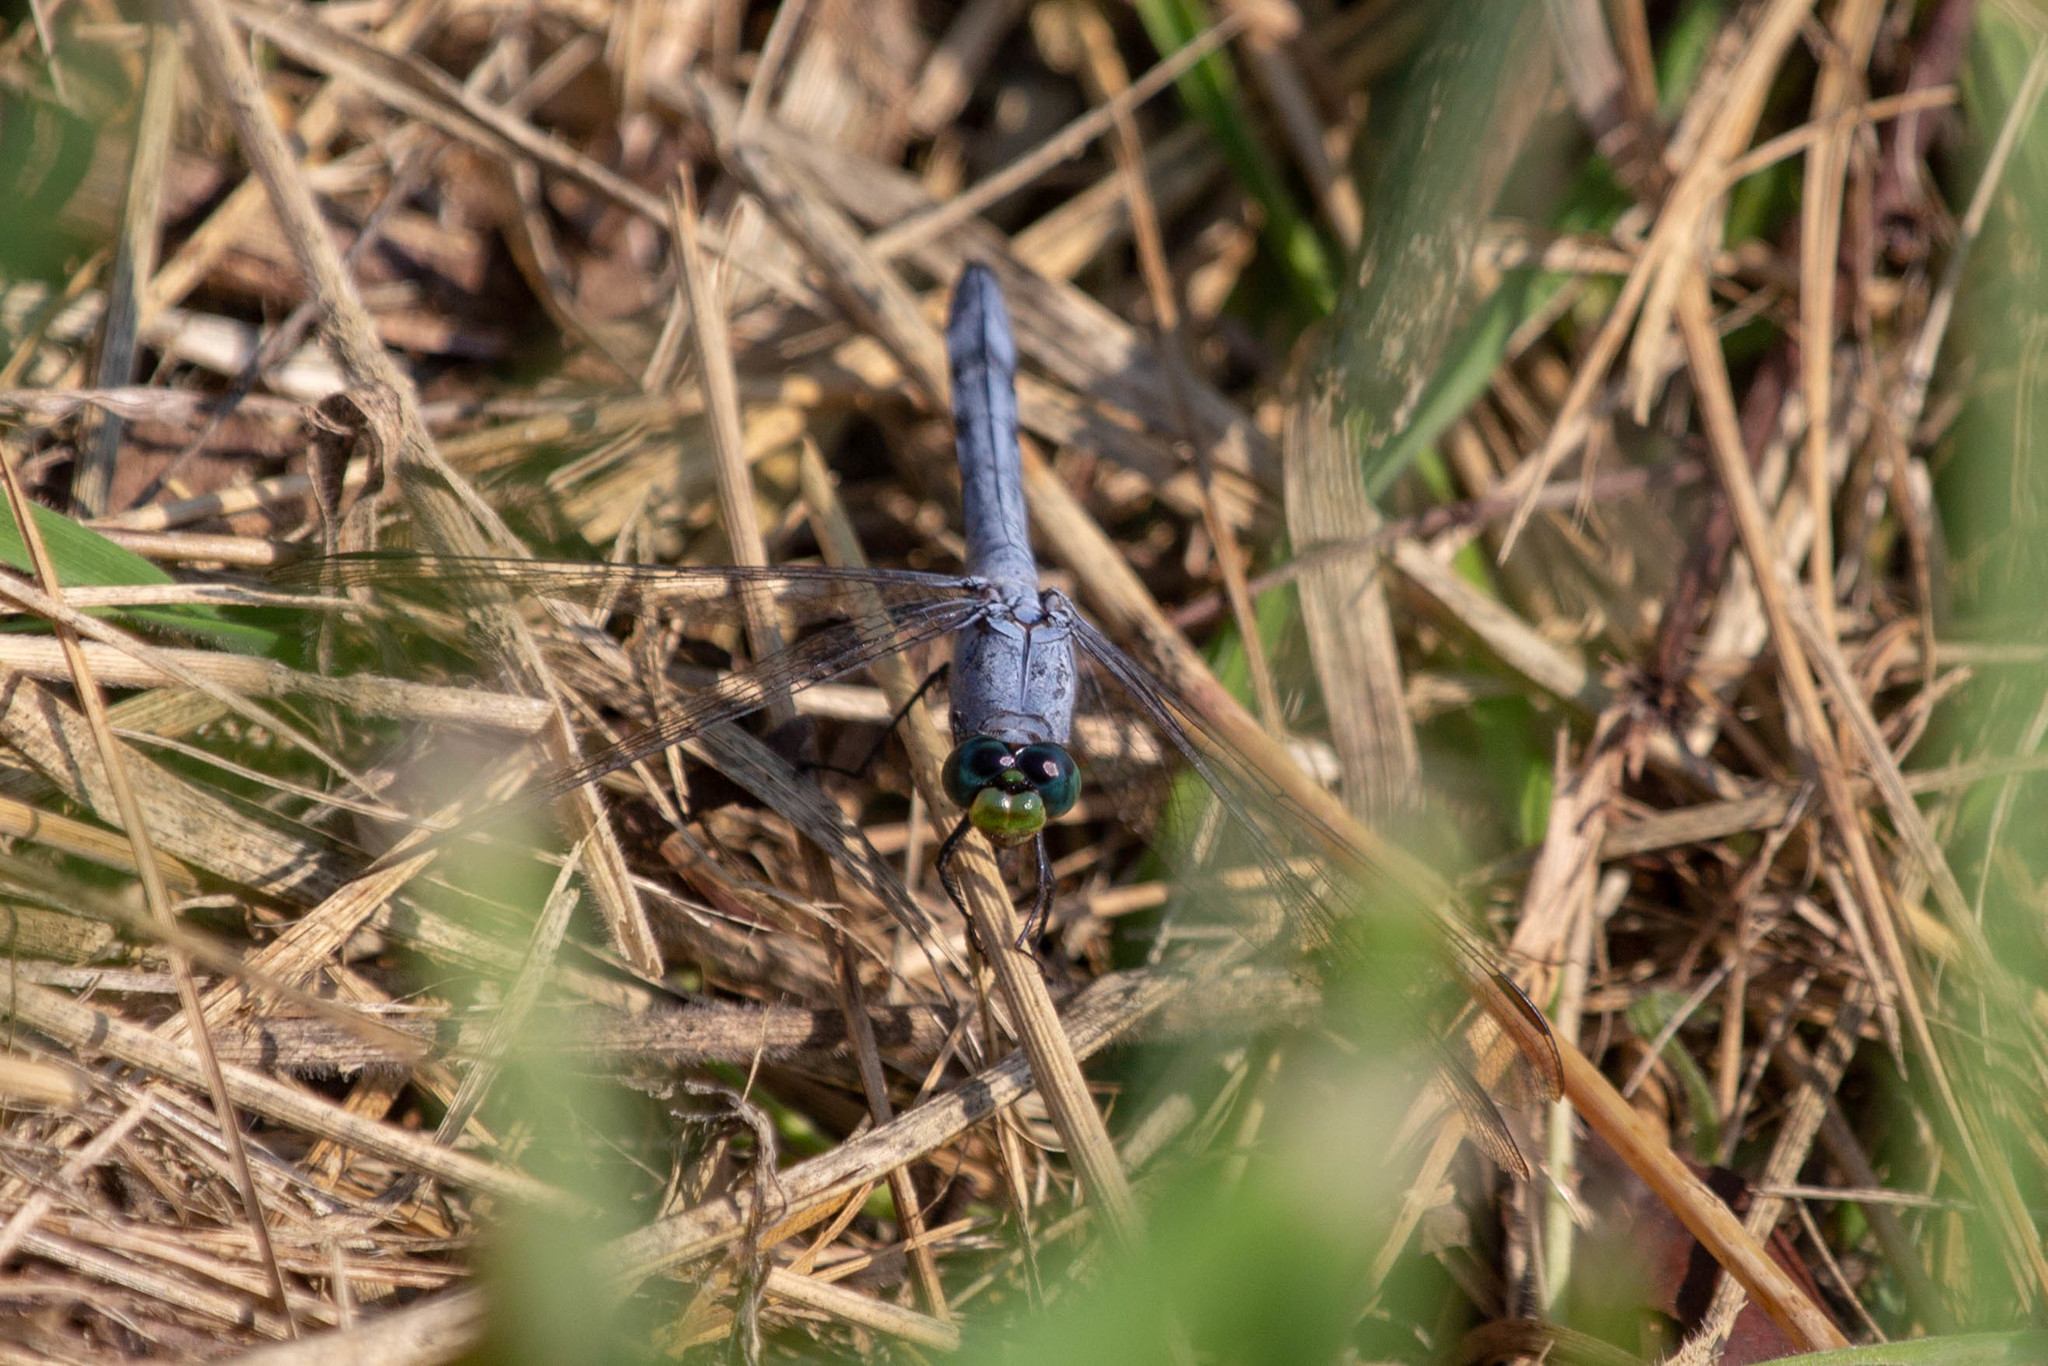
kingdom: Animalia
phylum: Arthropoda
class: Insecta
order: Odonata
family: Libellulidae
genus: Erythemis
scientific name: Erythemis simplicicollis
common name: Eastern pondhawk
